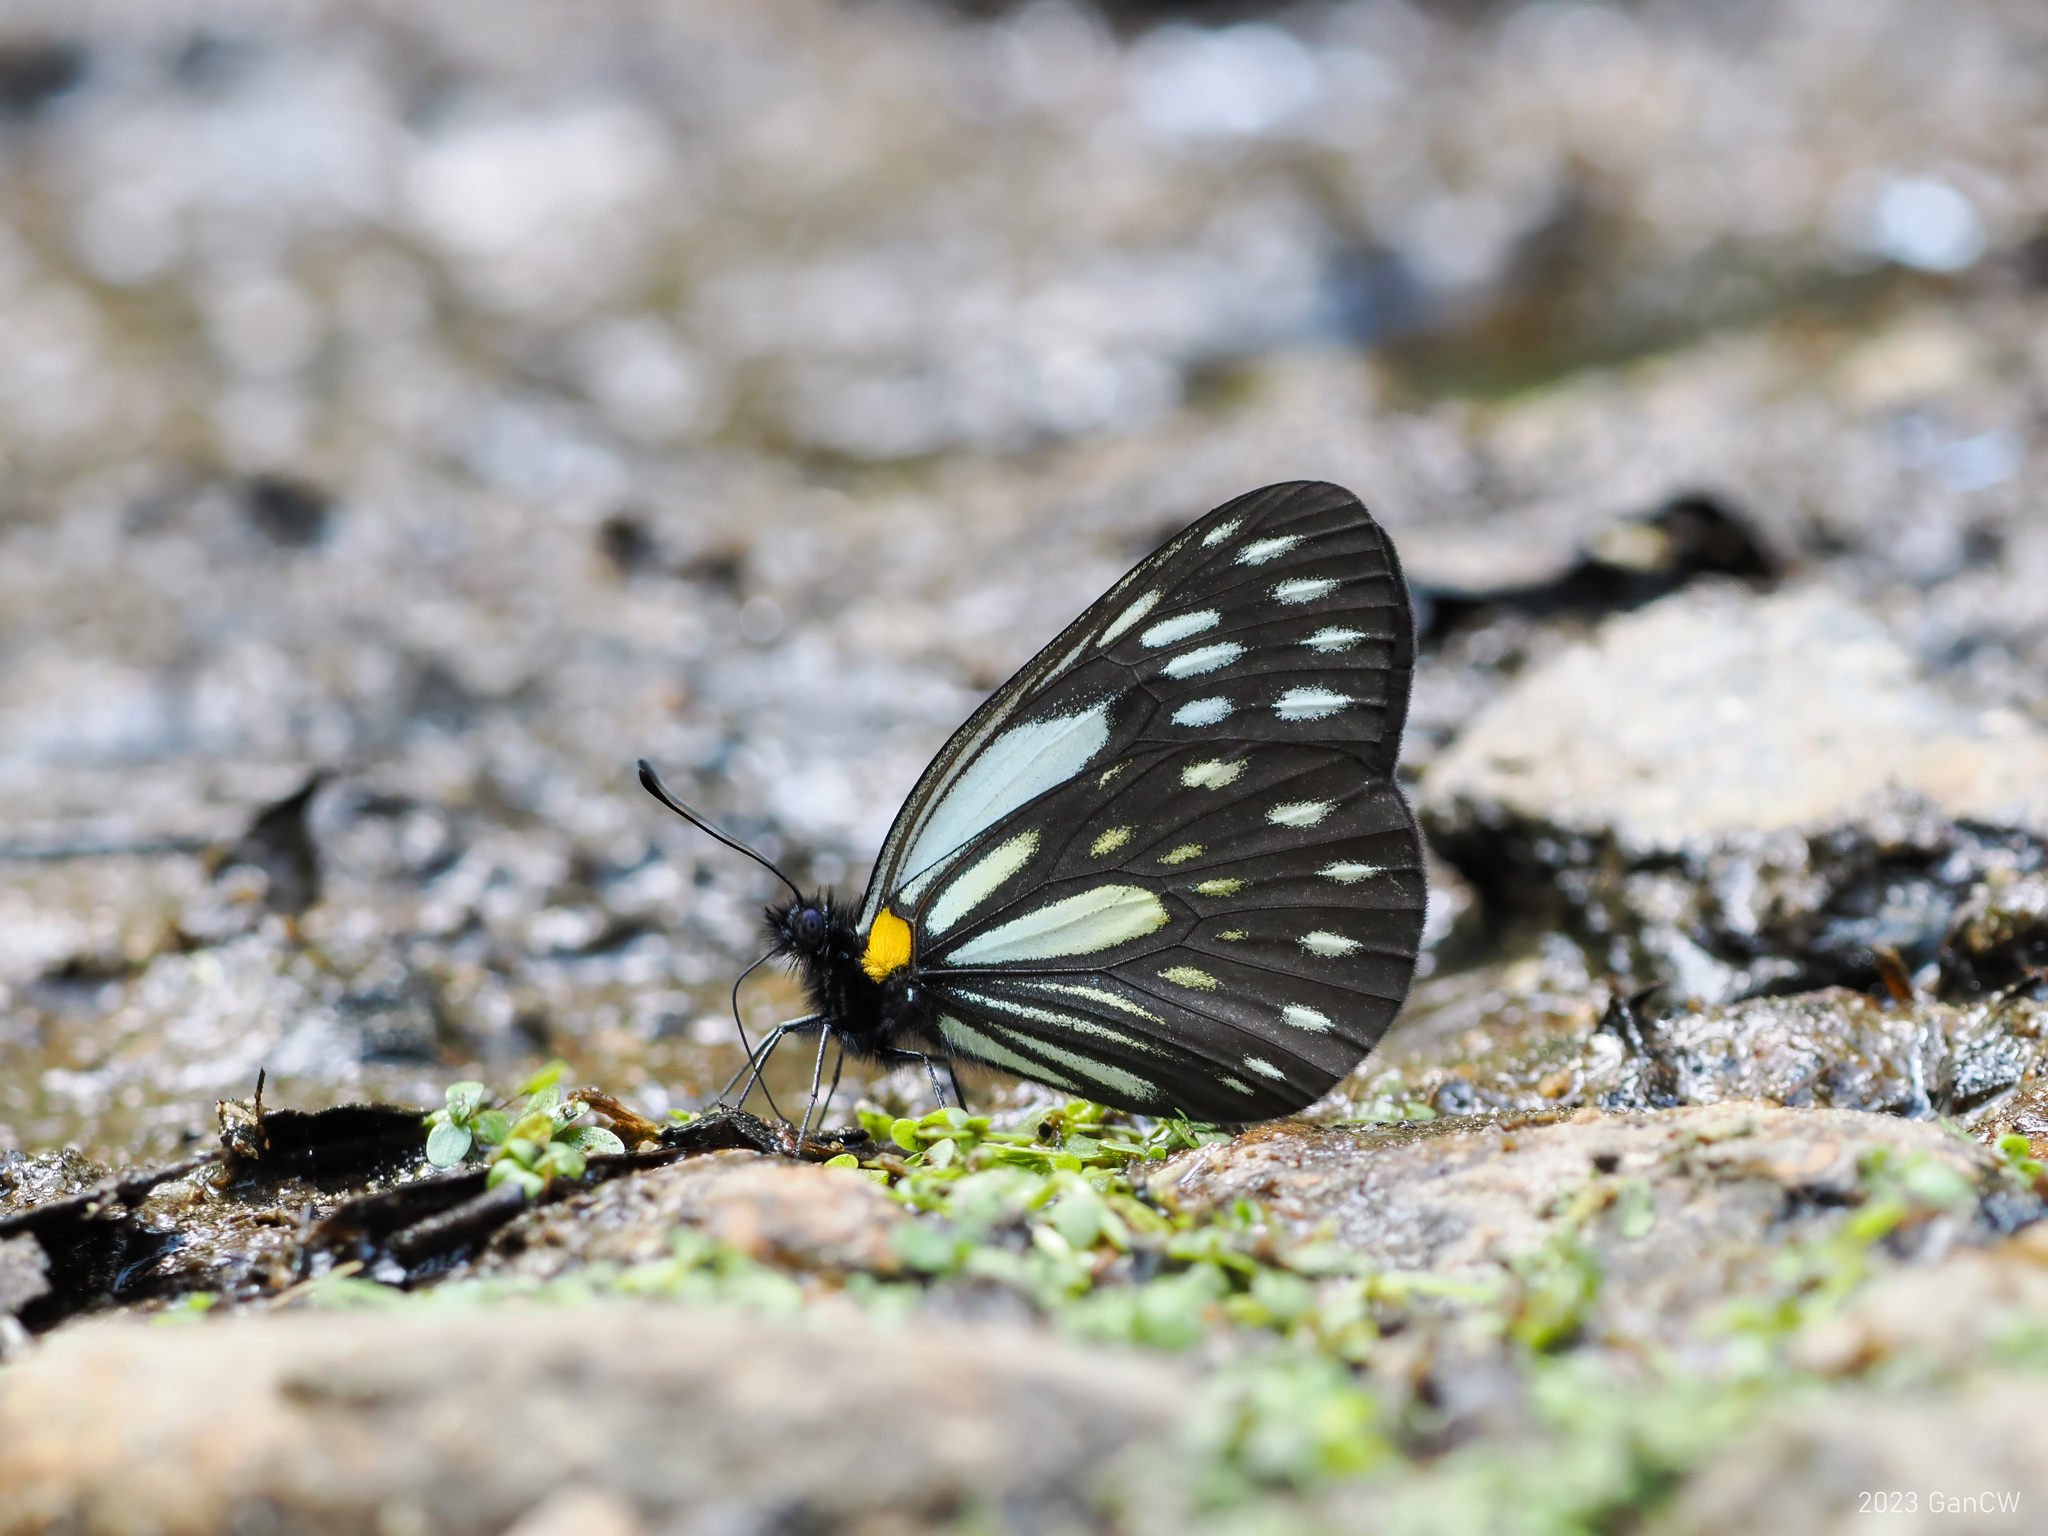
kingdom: Animalia
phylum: Arthropoda
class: Insecta
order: Lepidoptera
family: Pieridae
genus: Aporia
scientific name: Aporia agathon
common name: Great blackvein
